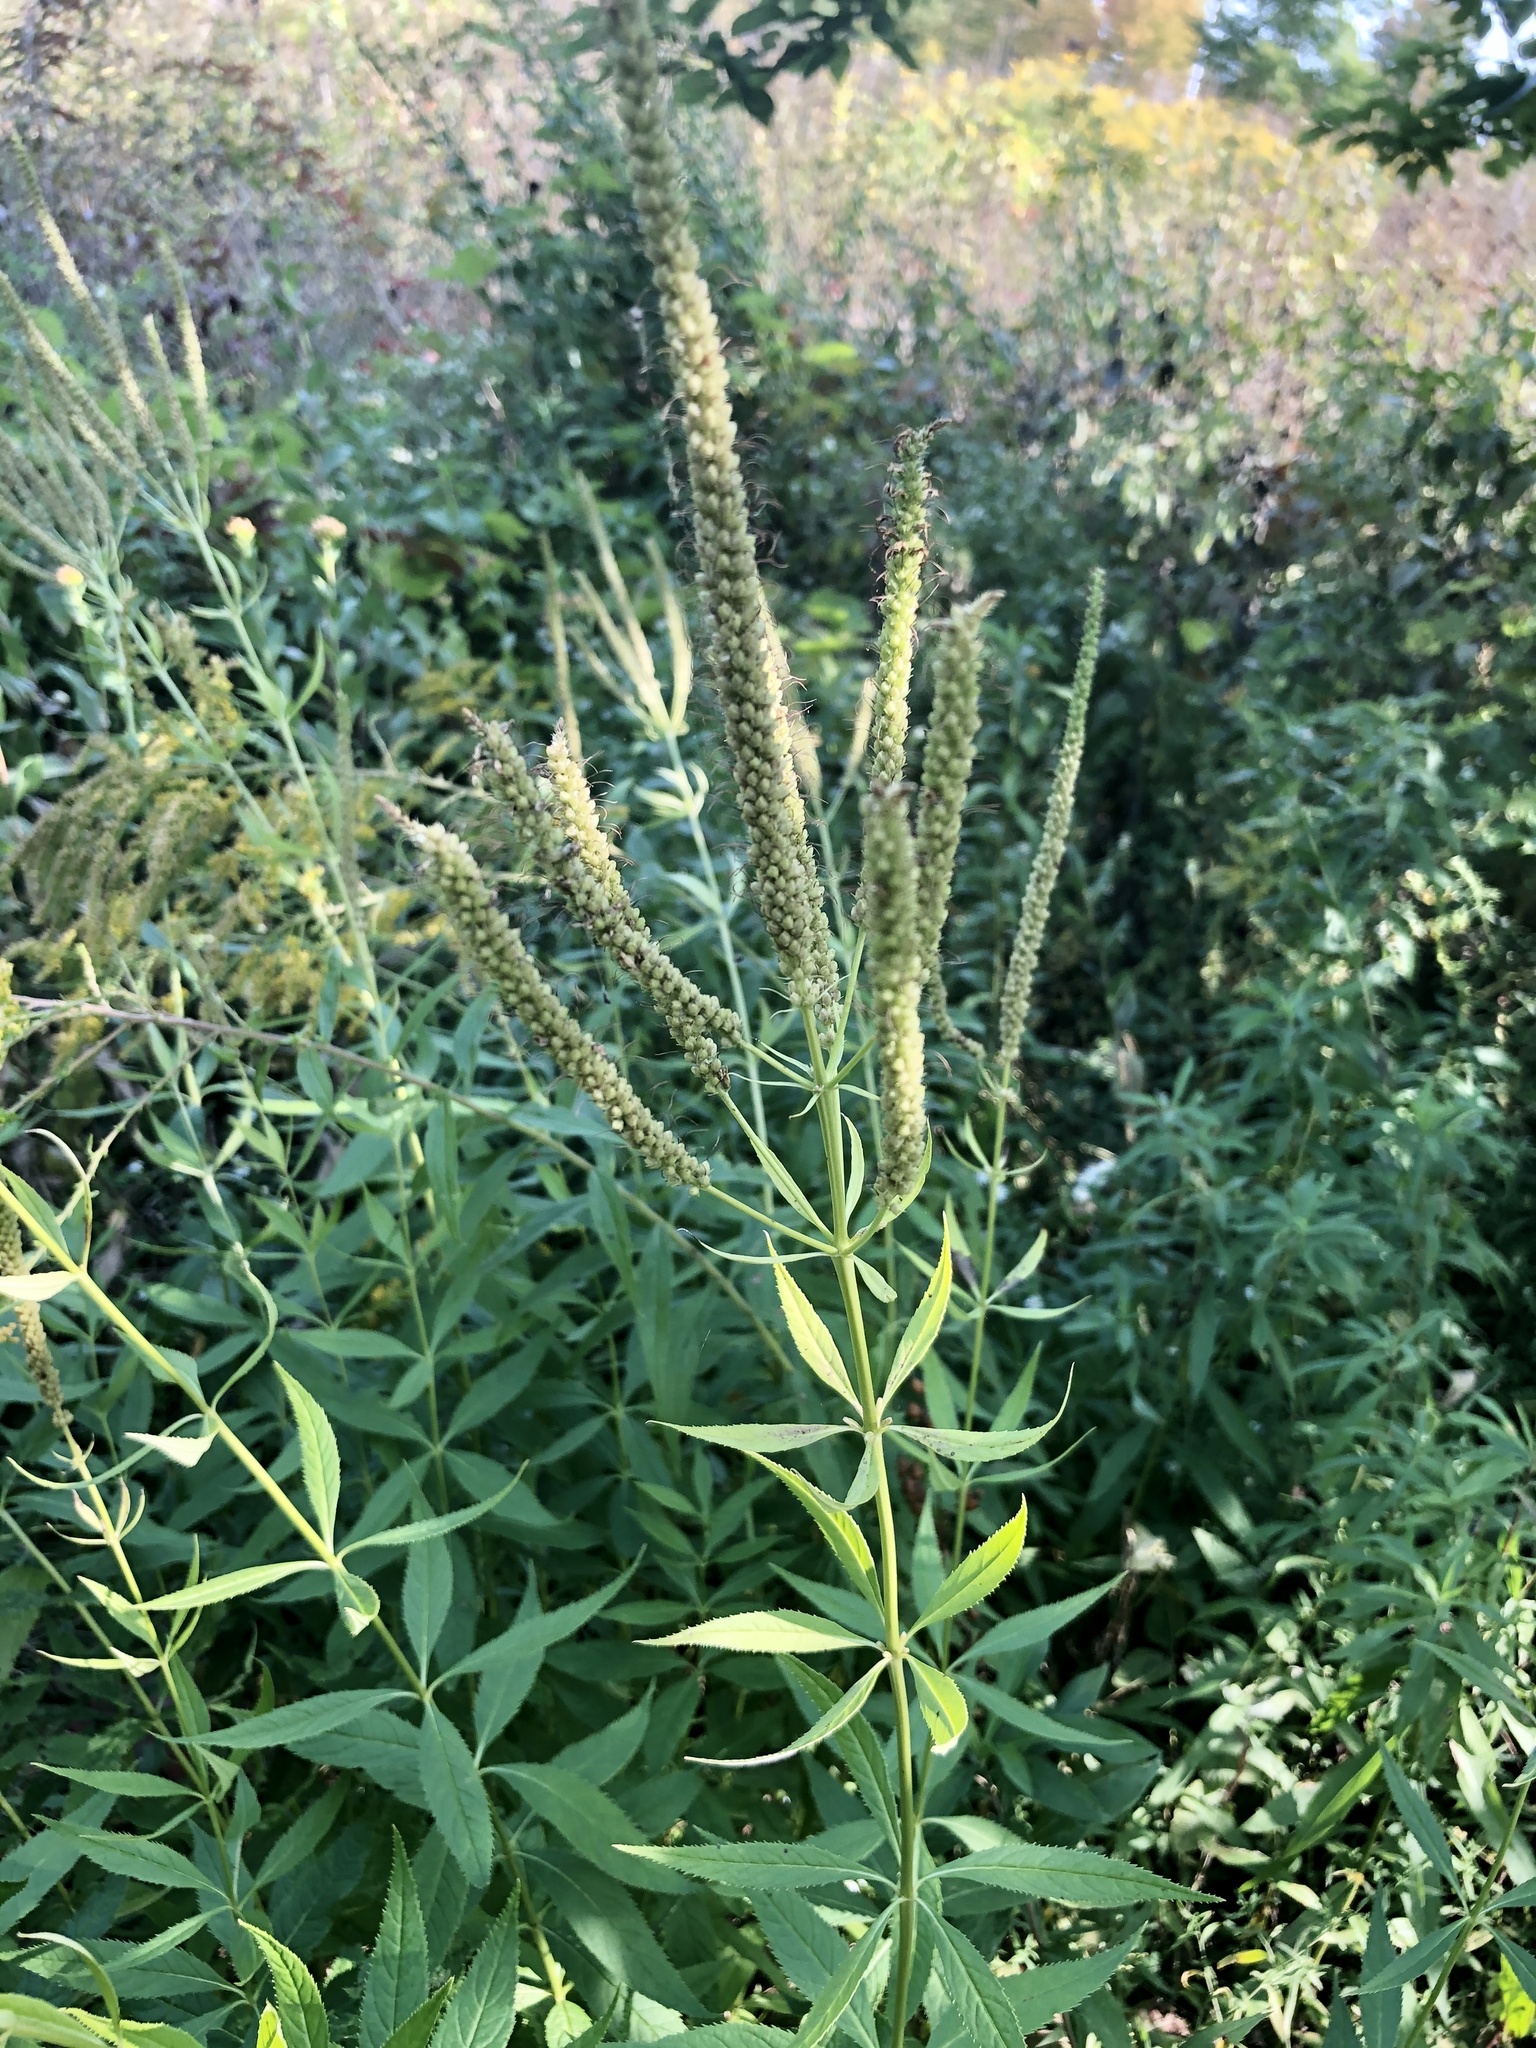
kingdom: Plantae
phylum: Tracheophyta
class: Magnoliopsida
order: Lamiales
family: Plantaginaceae
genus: Veronicastrum
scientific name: Veronicastrum virginicum
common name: Blackroot
